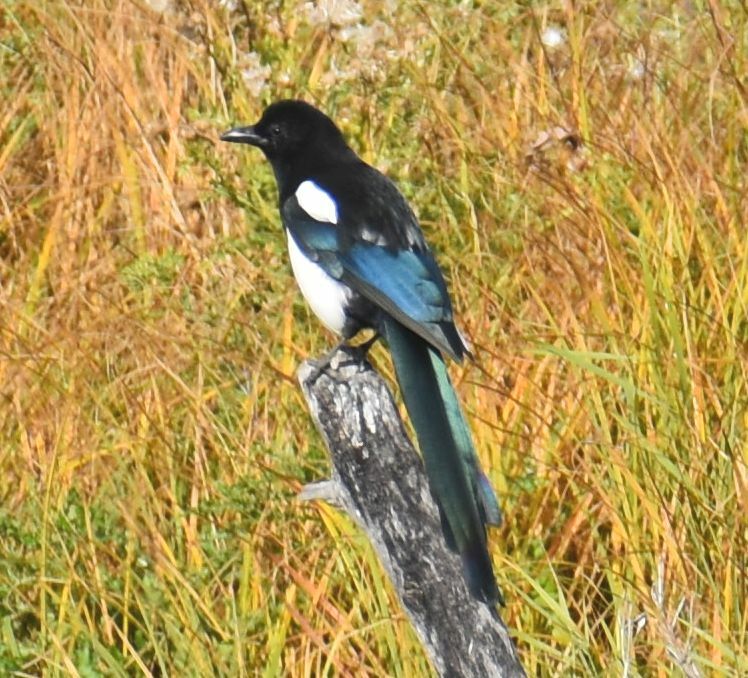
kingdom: Animalia
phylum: Chordata
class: Aves
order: Passeriformes
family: Corvidae
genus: Pica
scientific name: Pica hudsonia
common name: Black-billed magpie
